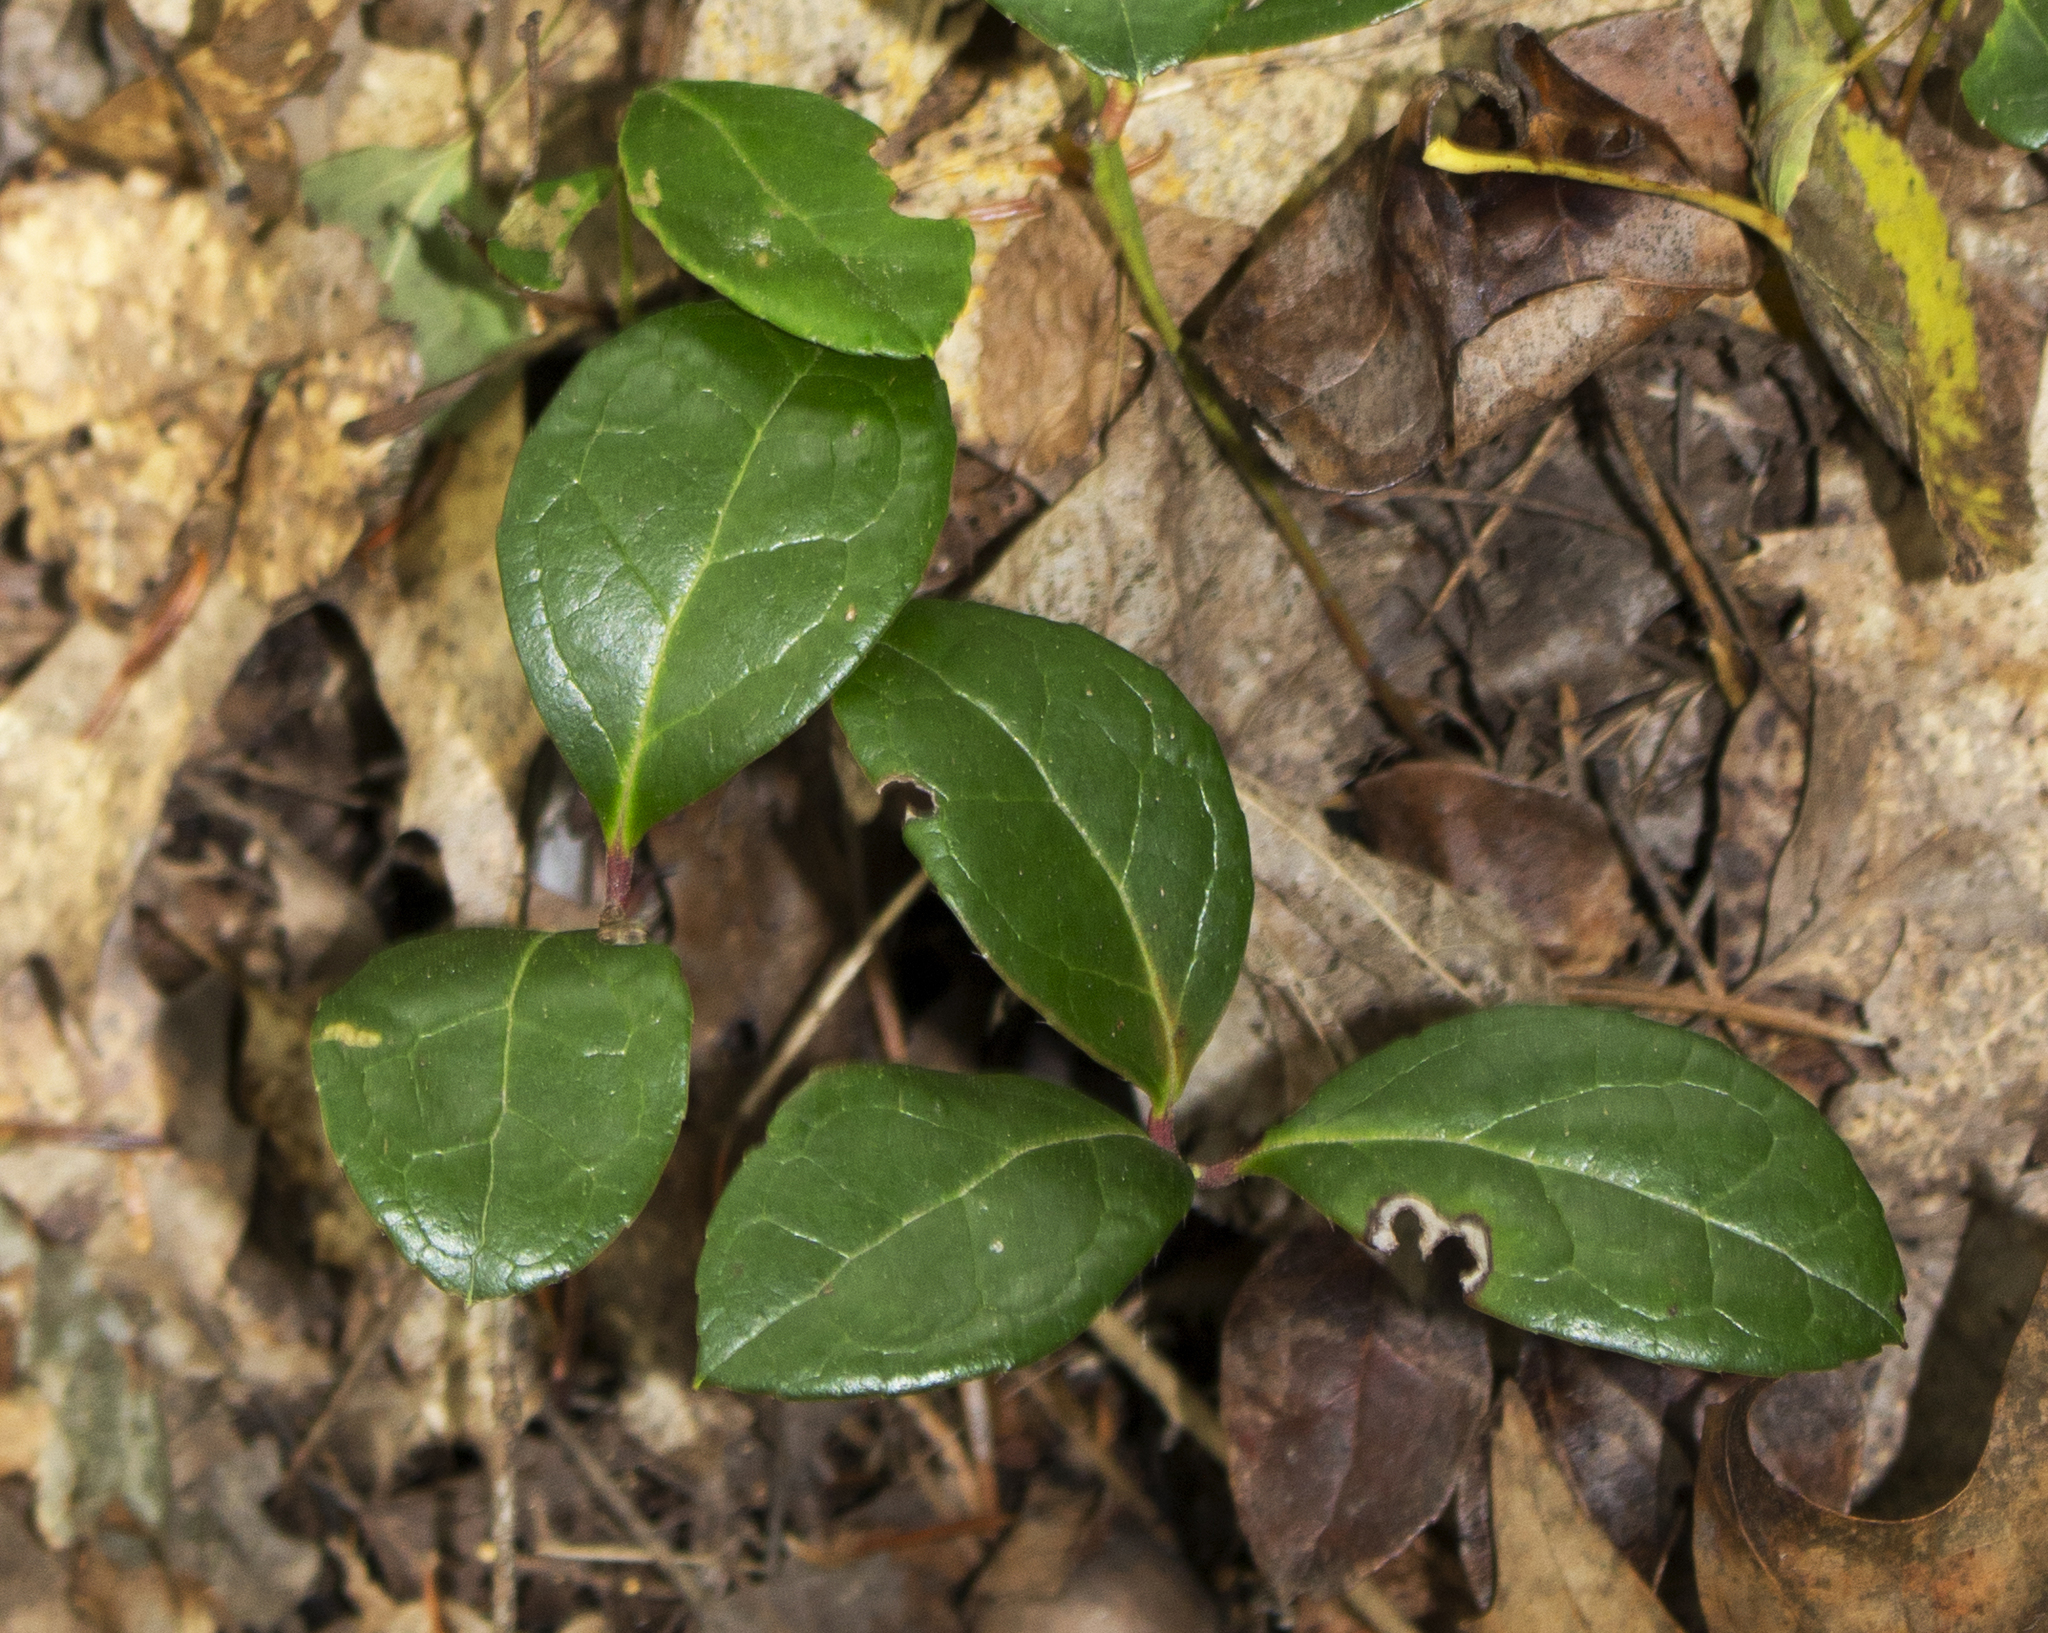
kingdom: Plantae
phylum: Tracheophyta
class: Magnoliopsida
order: Ericales
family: Ericaceae
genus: Gaultheria
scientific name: Gaultheria procumbens
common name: Checkerberry
